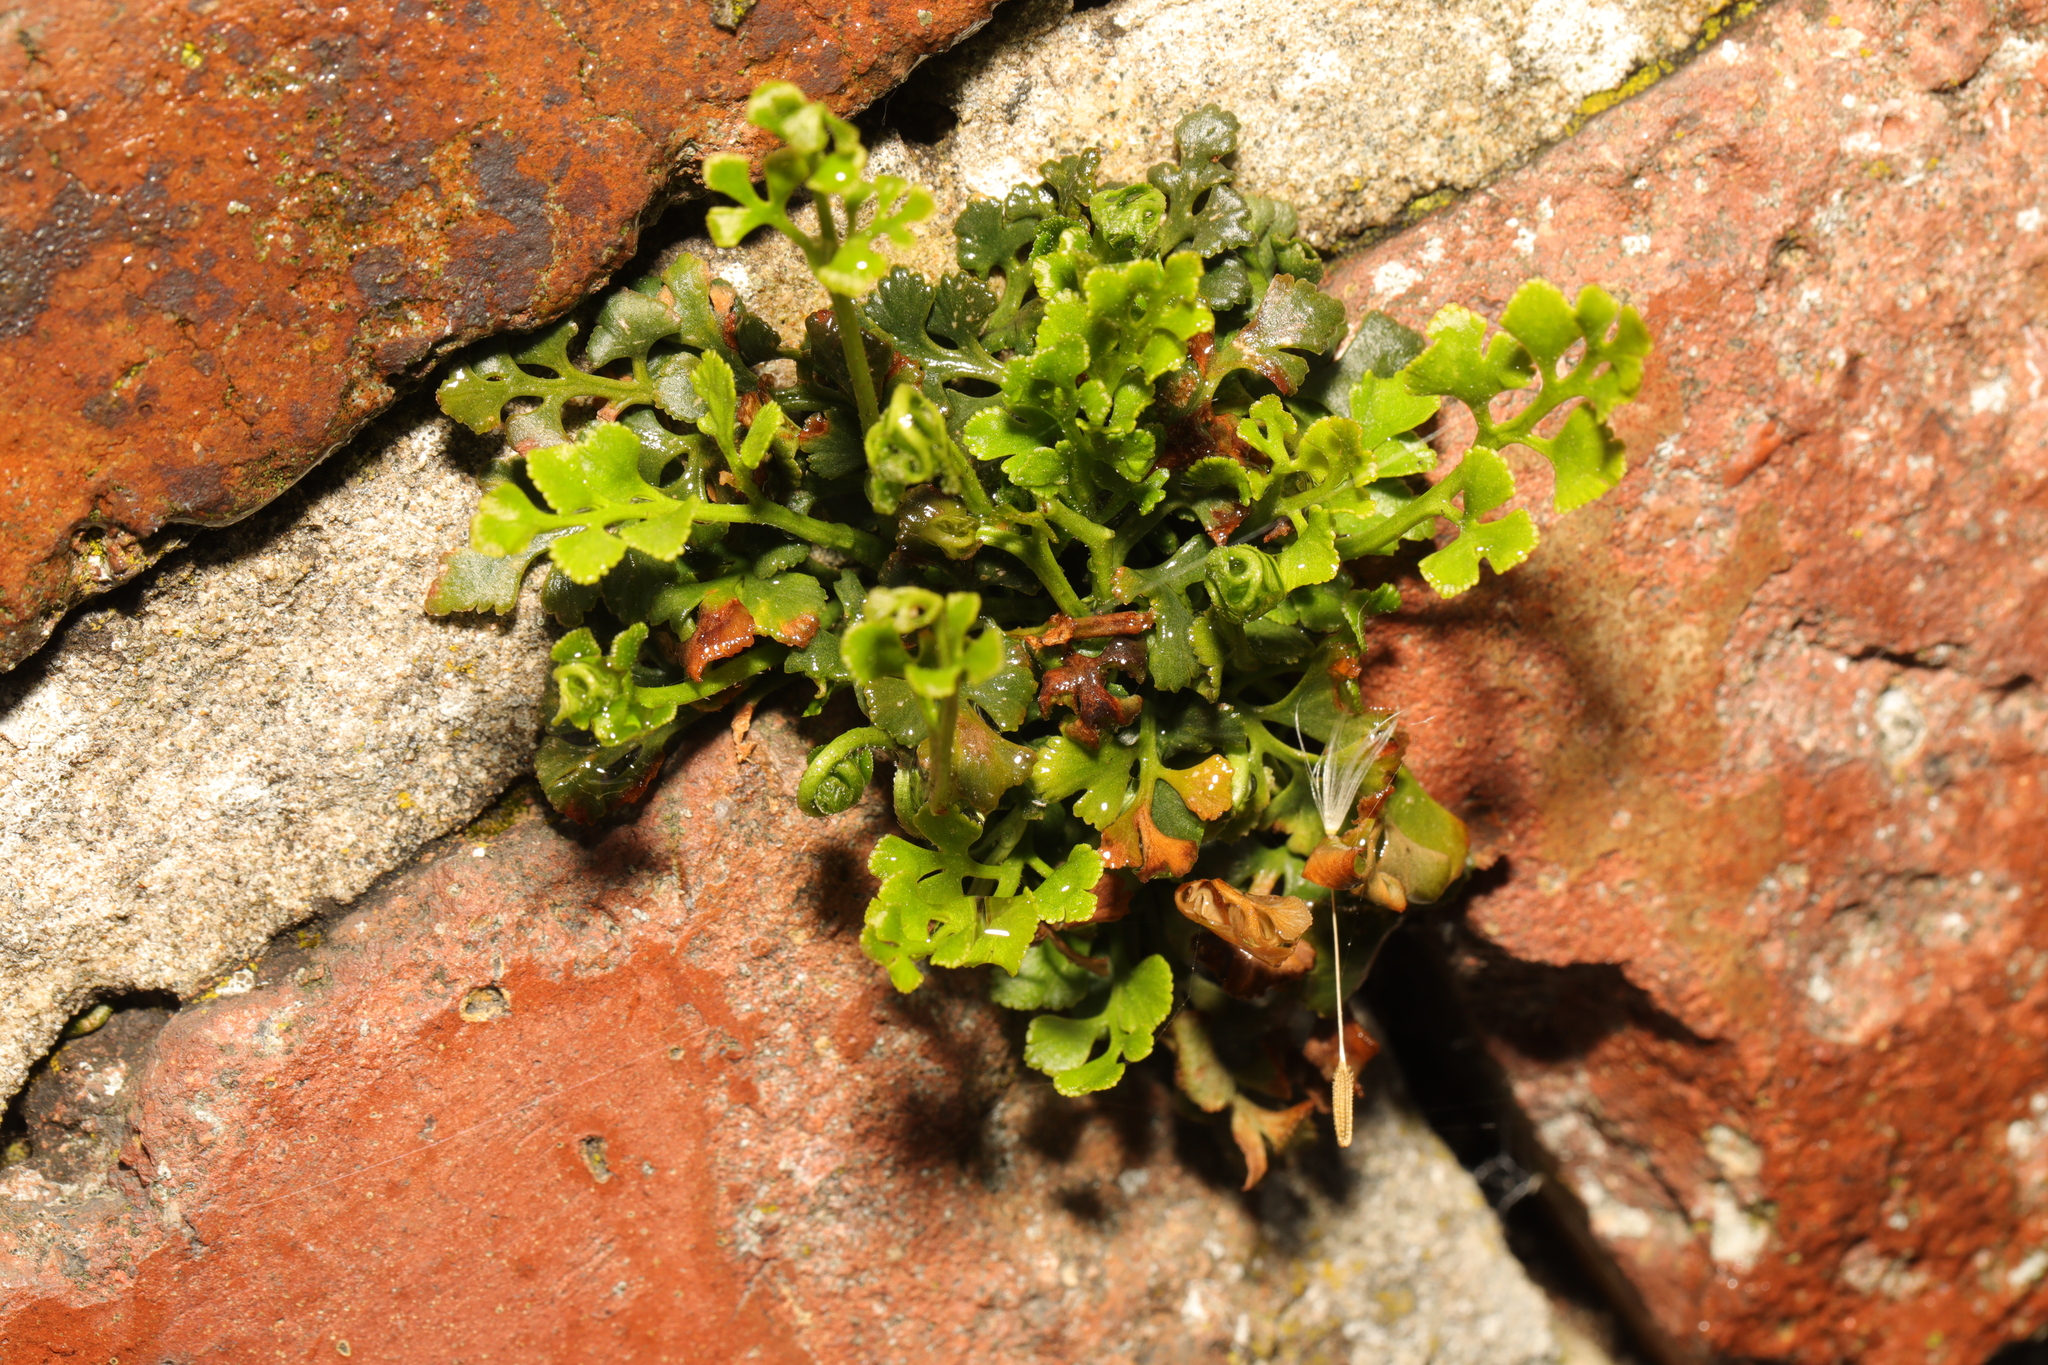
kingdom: Plantae
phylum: Tracheophyta
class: Polypodiopsida
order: Polypodiales
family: Aspleniaceae
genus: Asplenium
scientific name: Asplenium ruta-muraria
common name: Wall-rue
